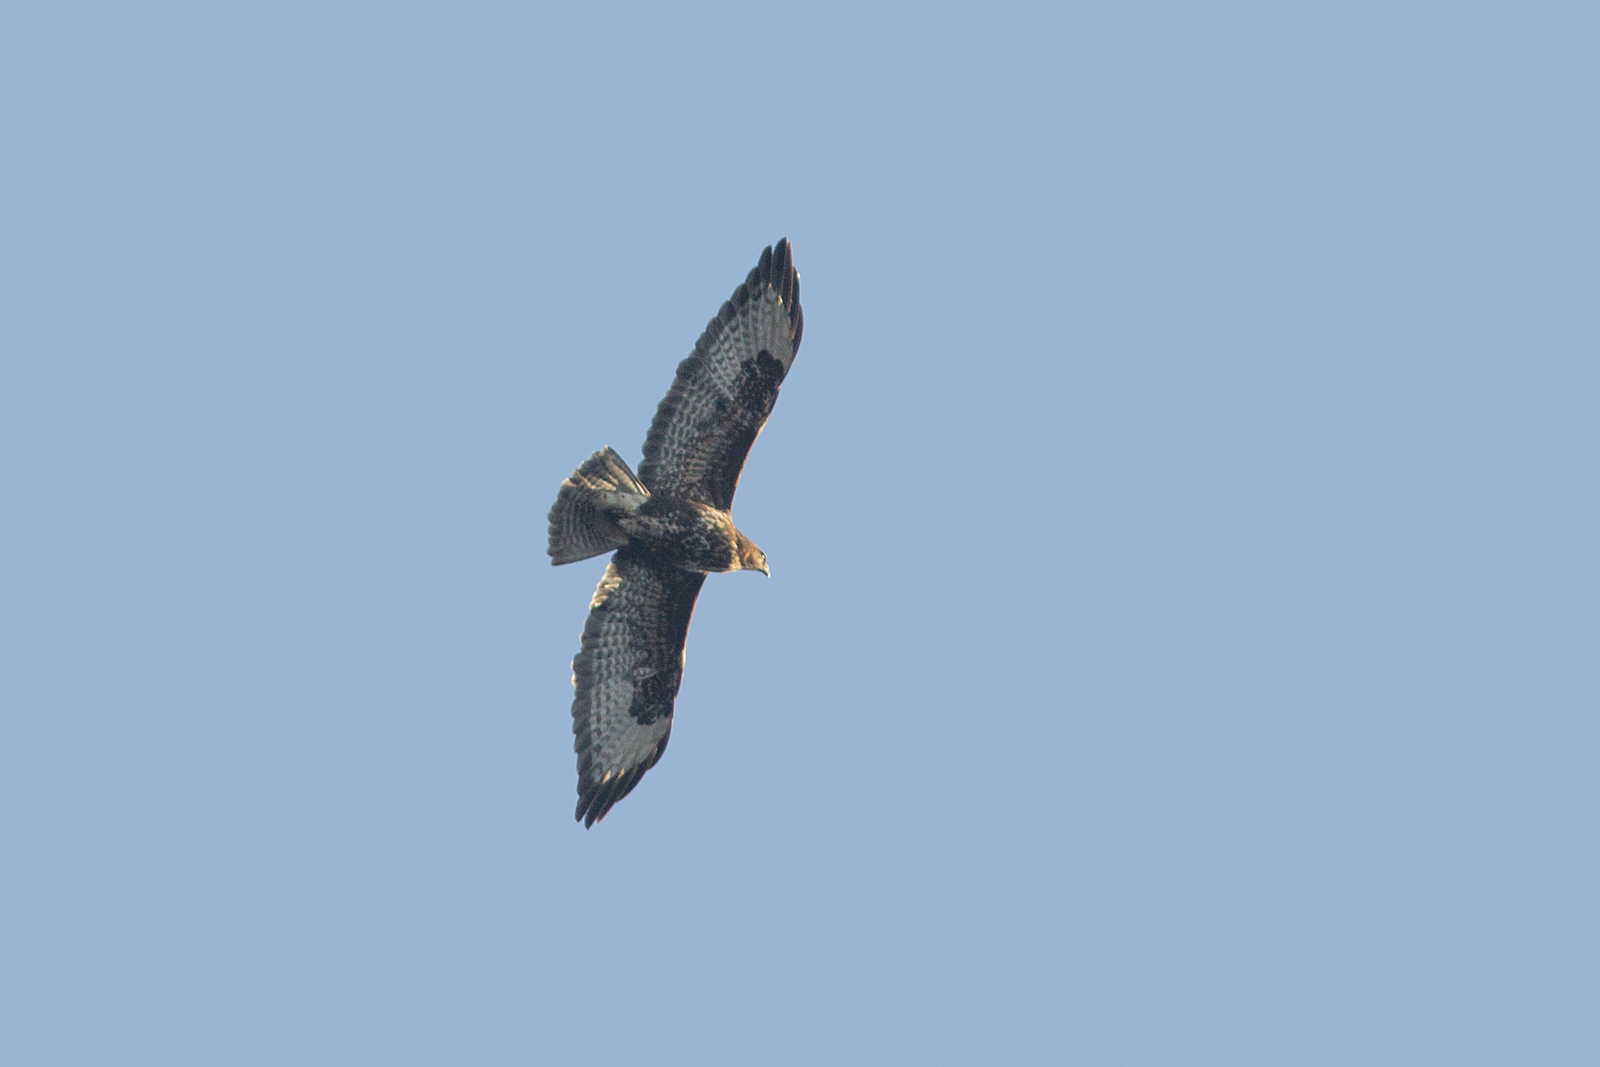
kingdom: Animalia
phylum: Chordata
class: Aves
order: Accipitriformes
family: Accipitridae
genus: Buteo
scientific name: Buteo buteo
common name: Common buzzard
